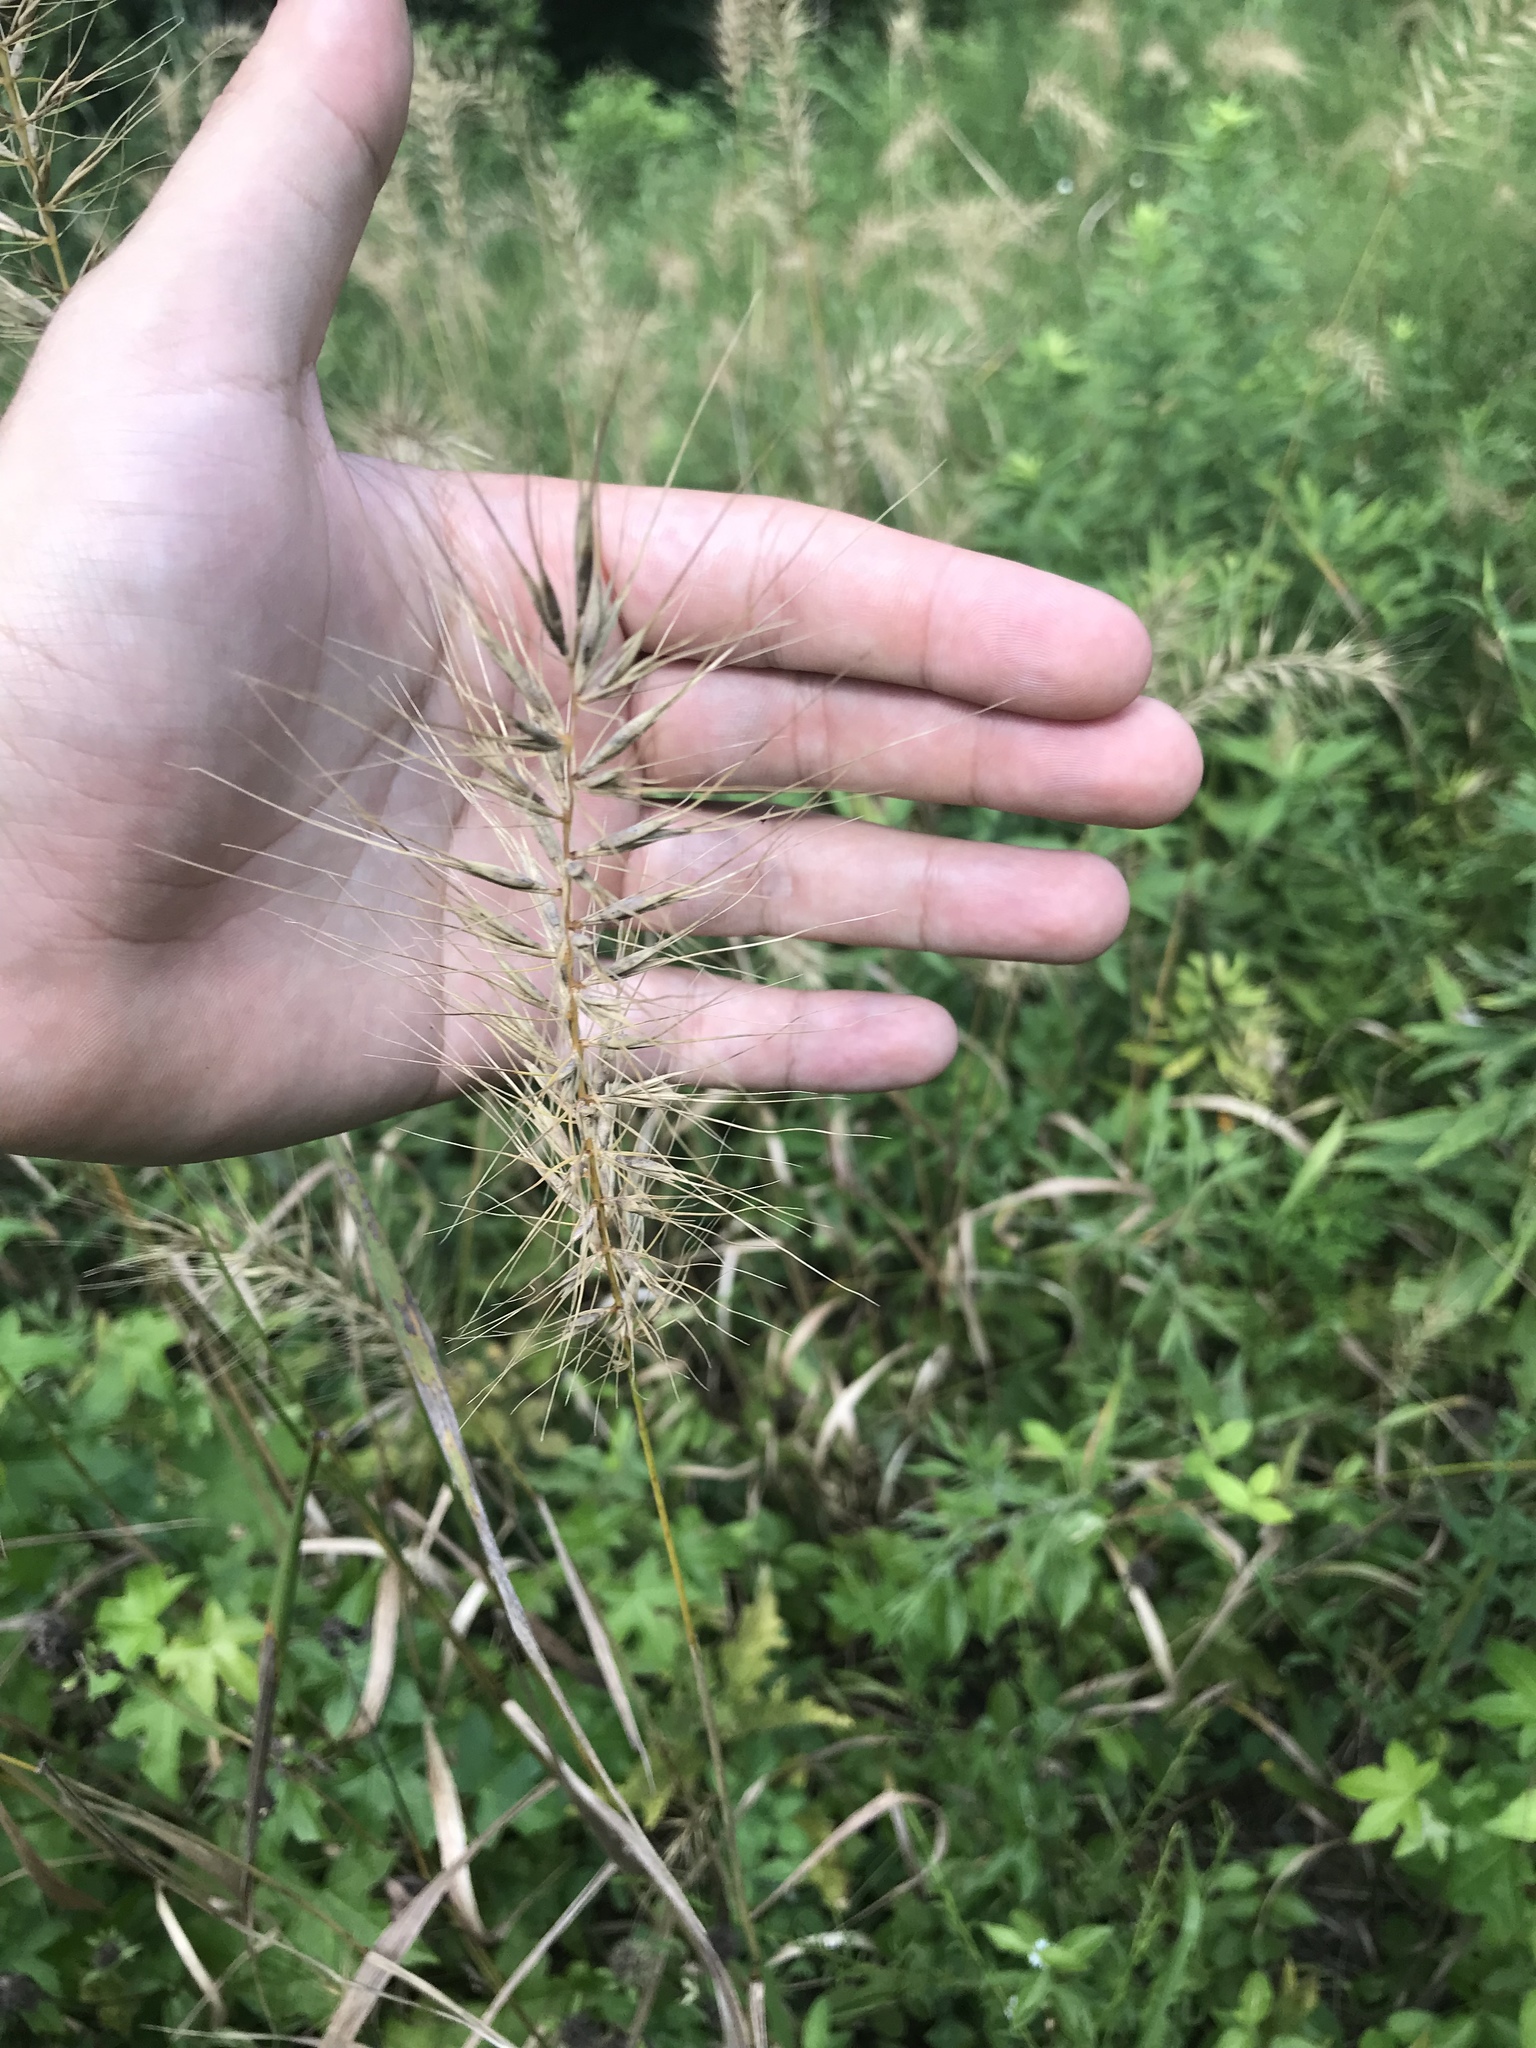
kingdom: Plantae
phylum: Tracheophyta
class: Liliopsida
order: Poales
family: Poaceae
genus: Elymus
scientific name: Elymus hystrix
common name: Bottlebrush grass
